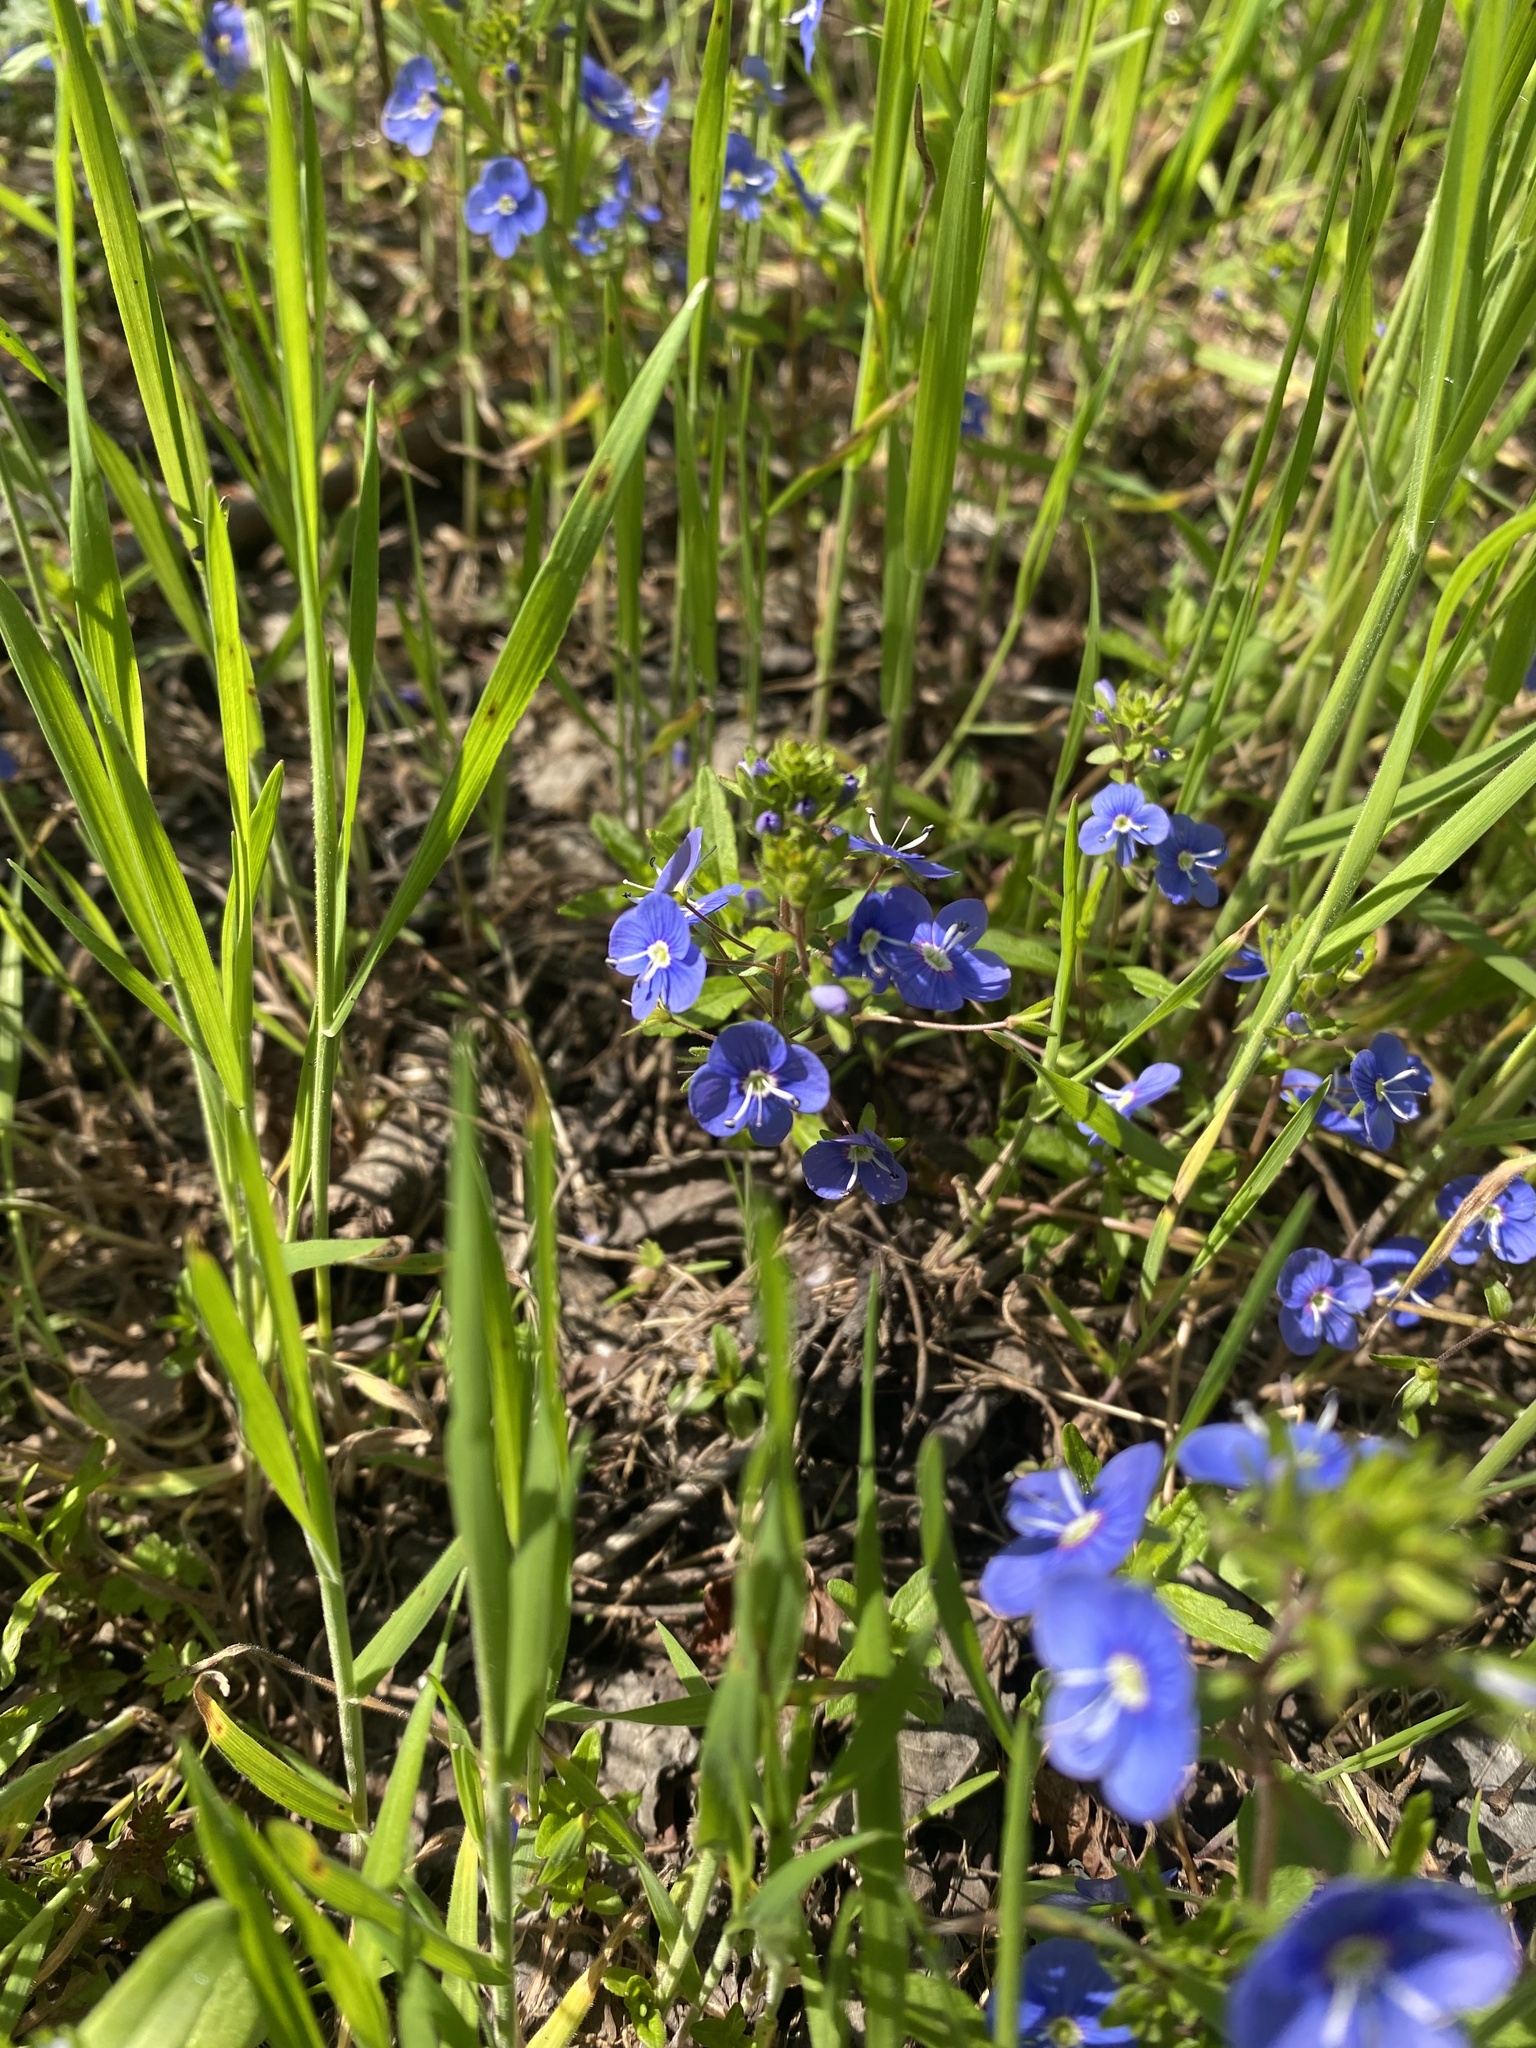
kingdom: Plantae
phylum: Tracheophyta
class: Magnoliopsida
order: Lamiales
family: Plantaginaceae
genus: Veronica
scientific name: Veronica
